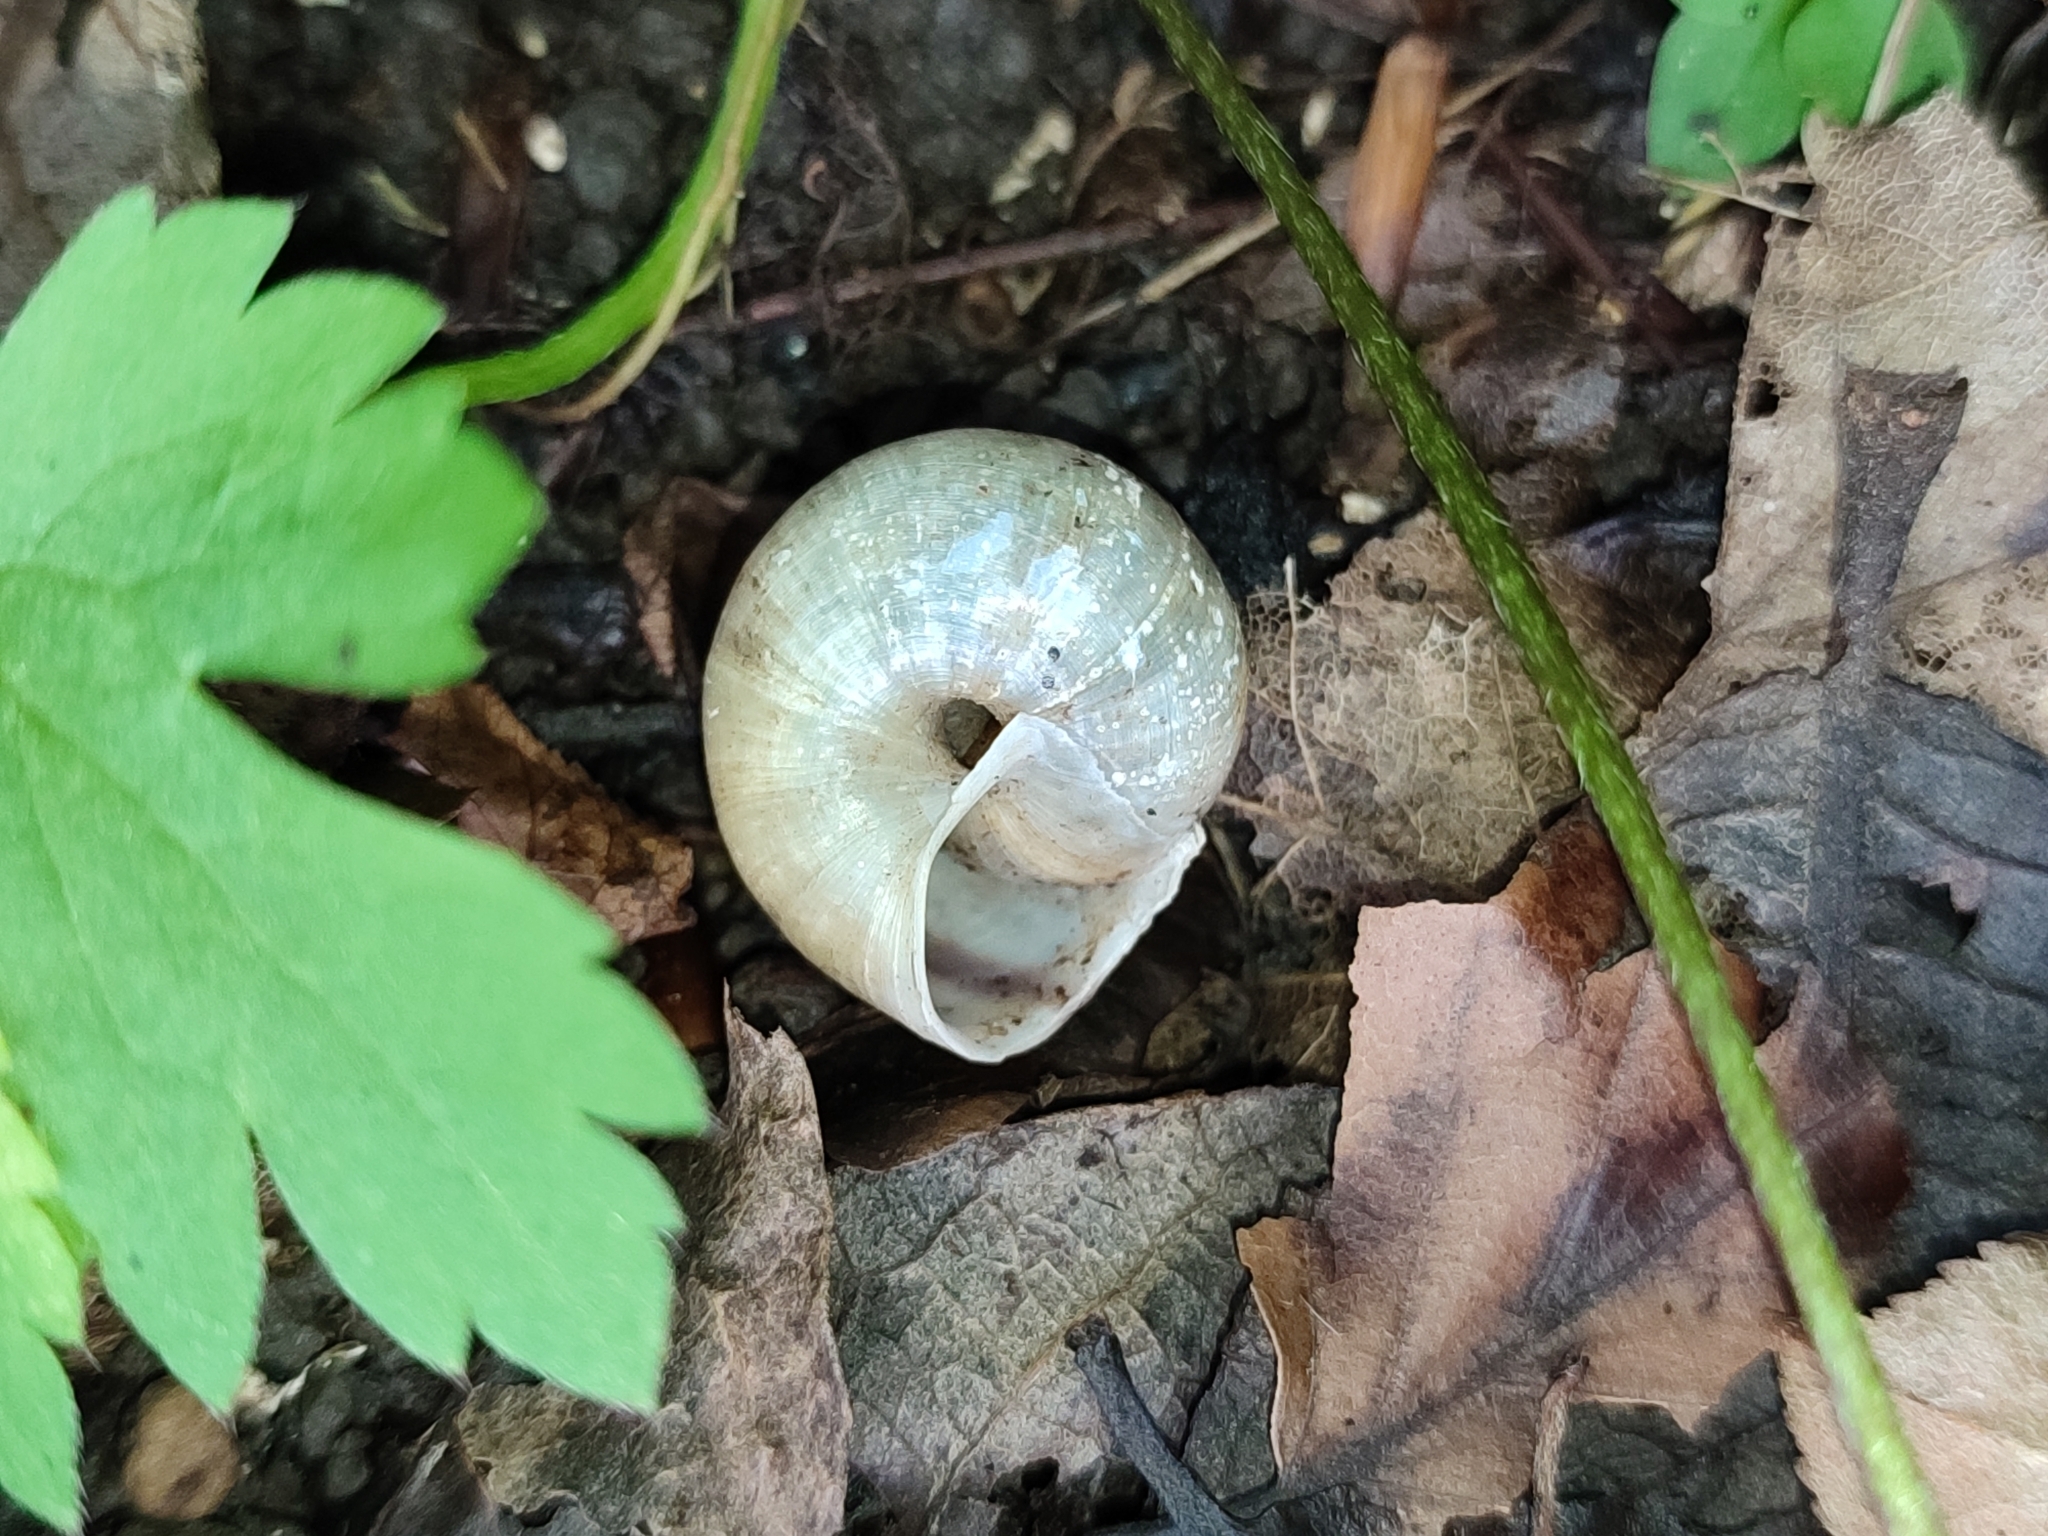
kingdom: Animalia
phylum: Mollusca
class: Gastropoda
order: Stylommatophora
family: Camaenidae
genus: Fruticicola
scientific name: Fruticicola fruticum
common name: Bush snail
